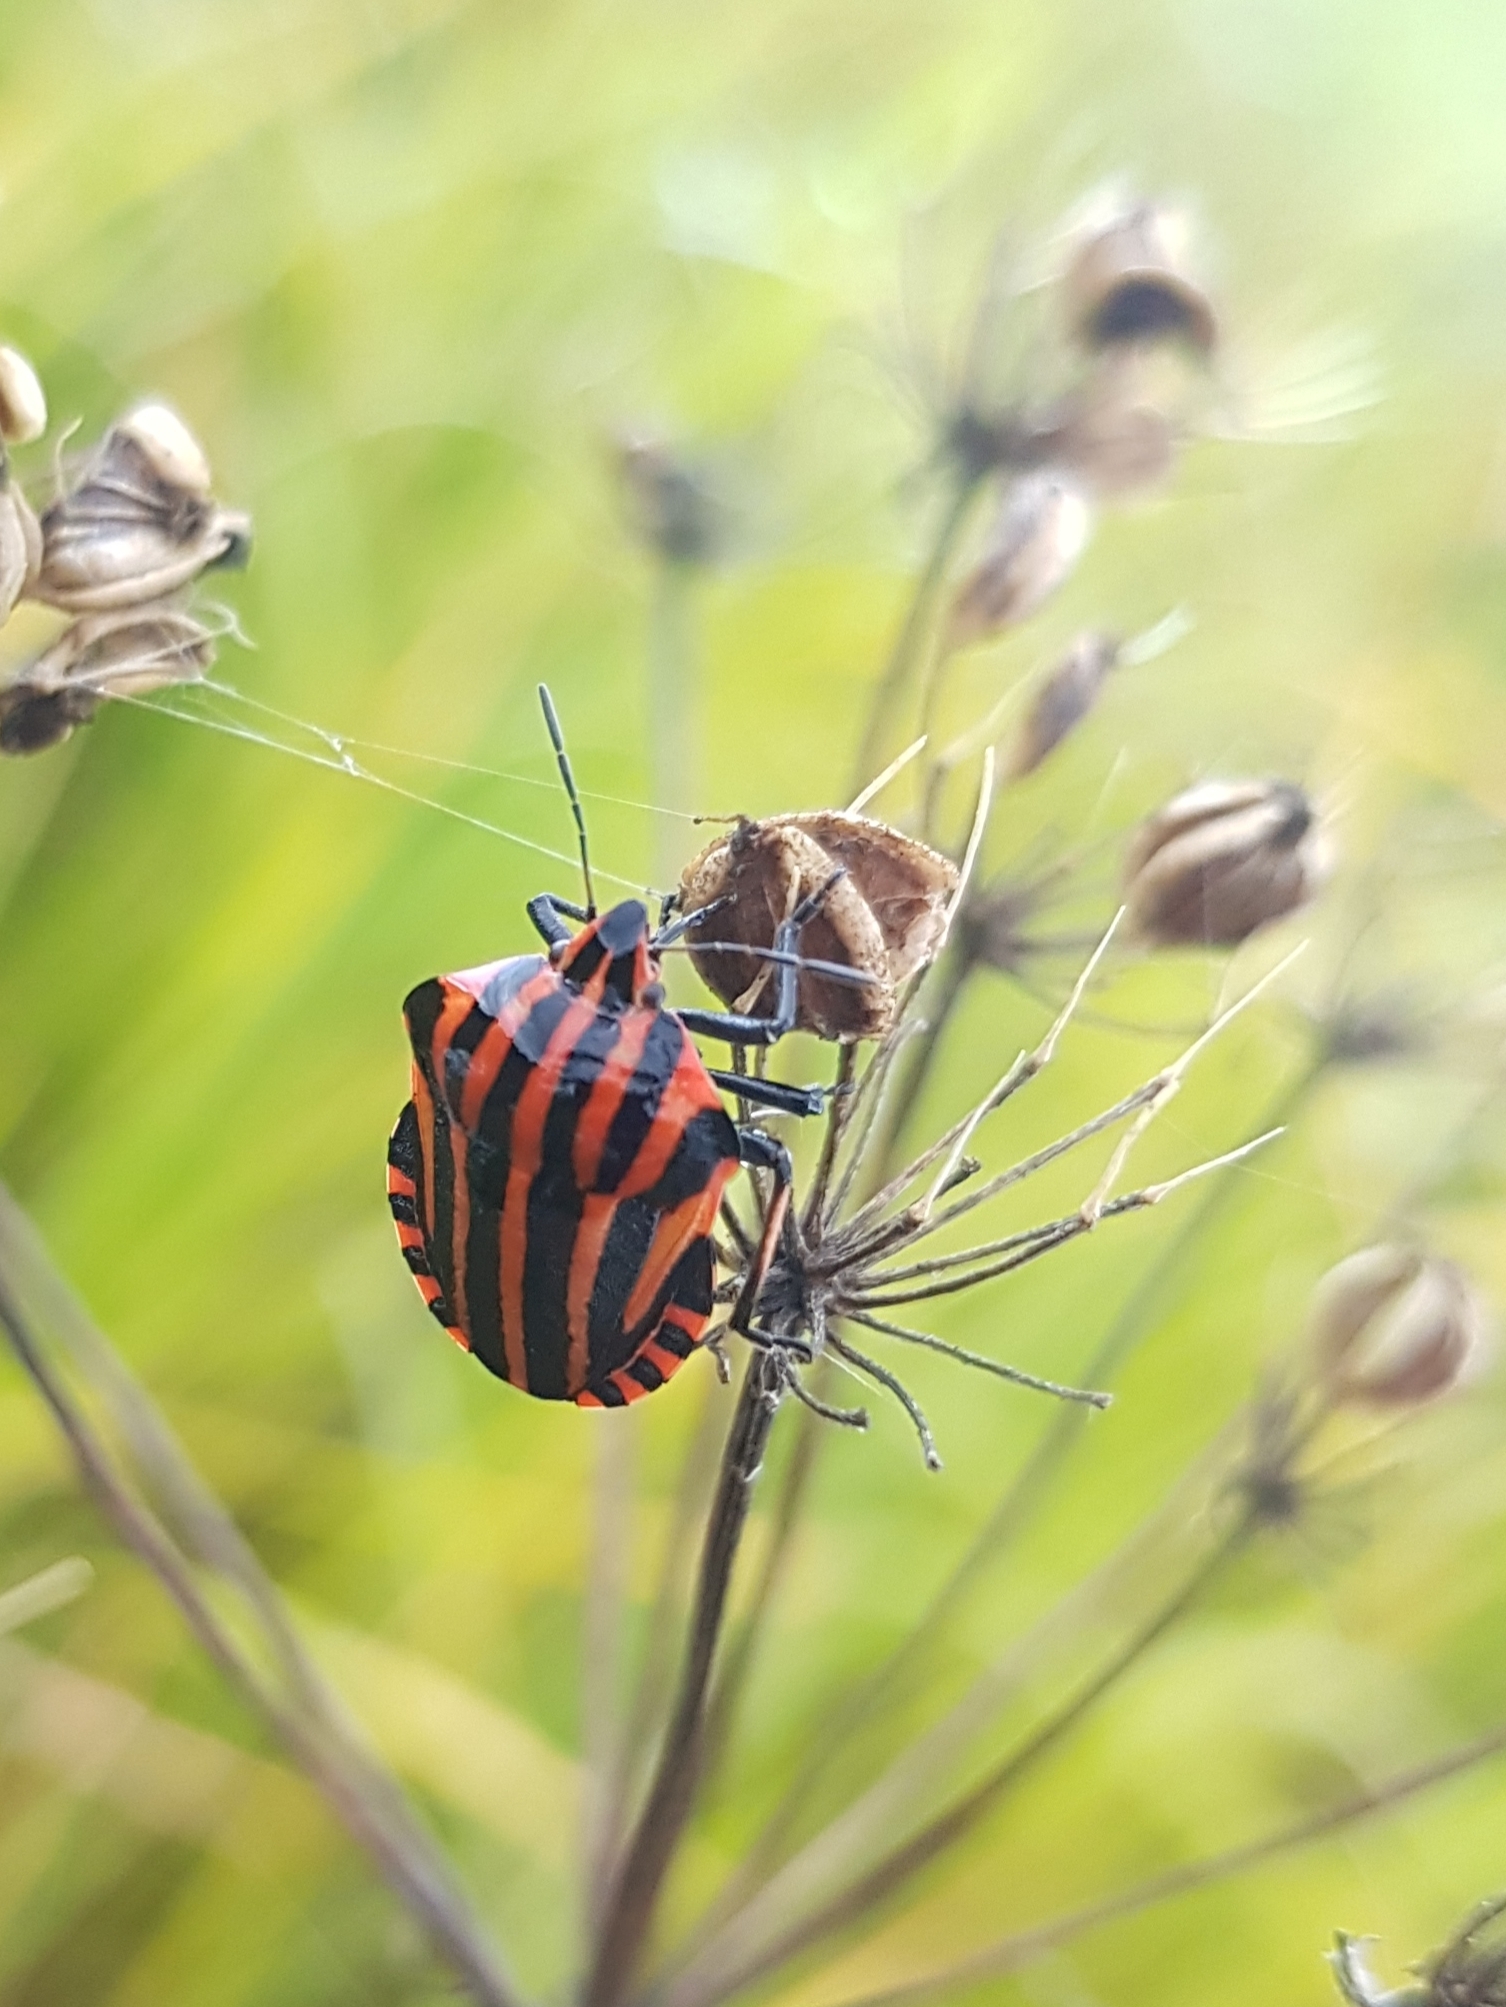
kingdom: Animalia
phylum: Arthropoda
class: Insecta
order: Hemiptera
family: Pentatomidae
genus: Graphosoma
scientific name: Graphosoma italicum
